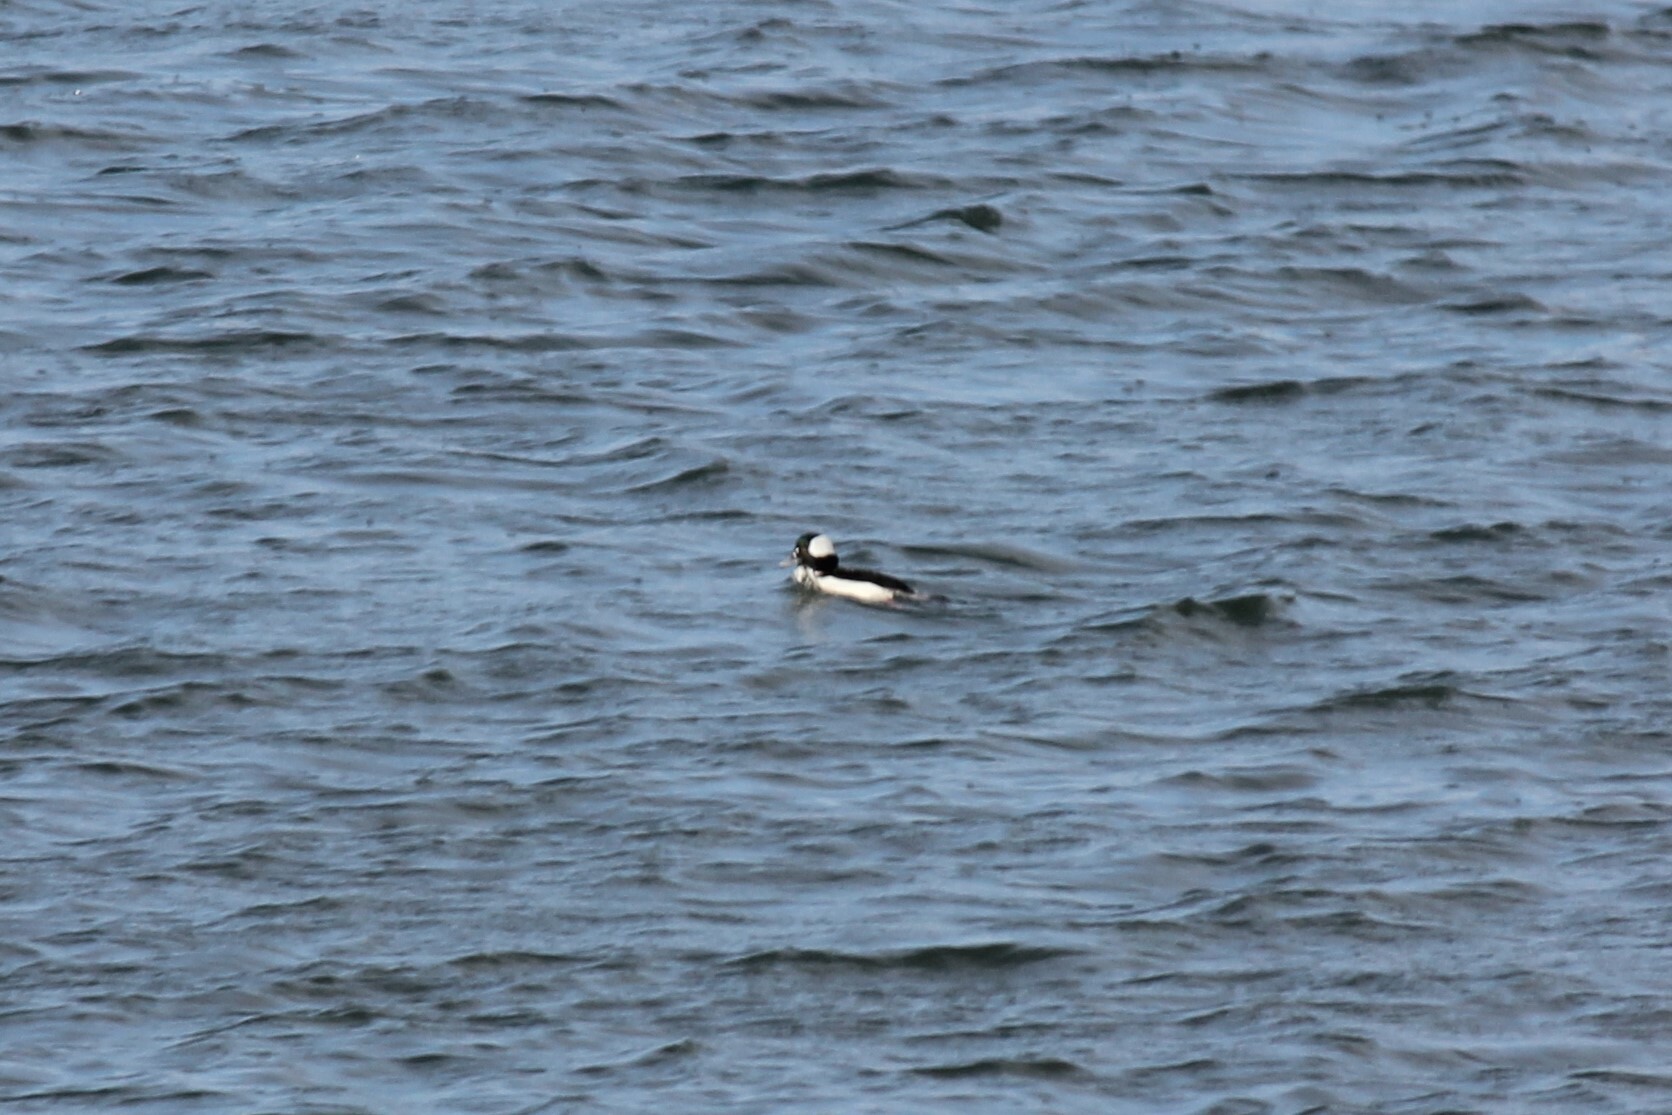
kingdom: Animalia
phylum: Chordata
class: Aves
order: Anseriformes
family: Anatidae
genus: Bucephala
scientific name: Bucephala albeola
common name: Bufflehead
